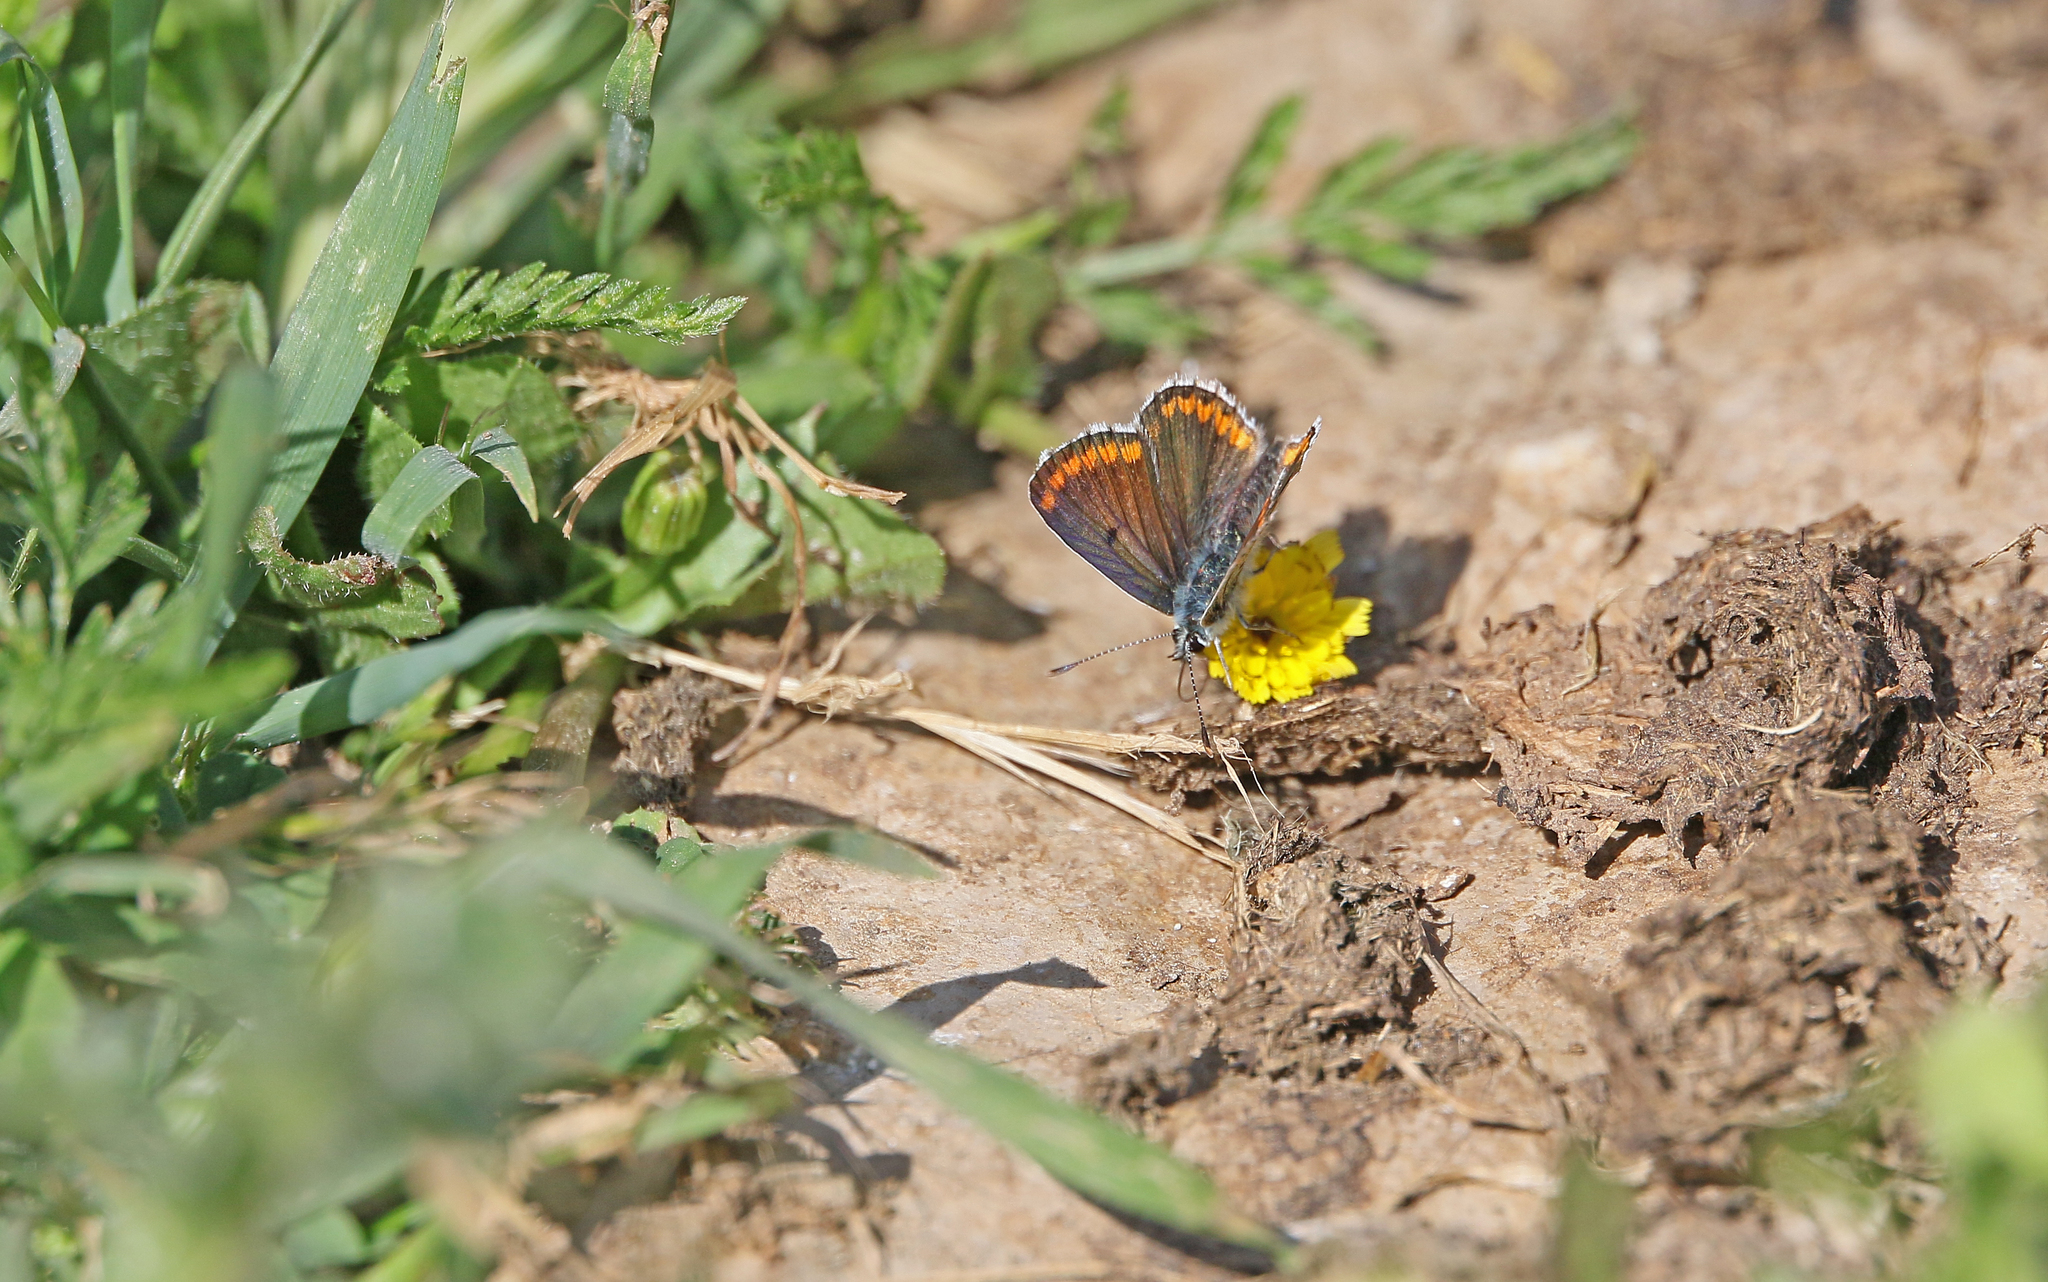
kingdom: Animalia
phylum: Arthropoda
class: Insecta
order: Lepidoptera
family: Lycaenidae
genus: Aricia
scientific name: Aricia cramera
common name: Eschscholtz´s brown  argus
